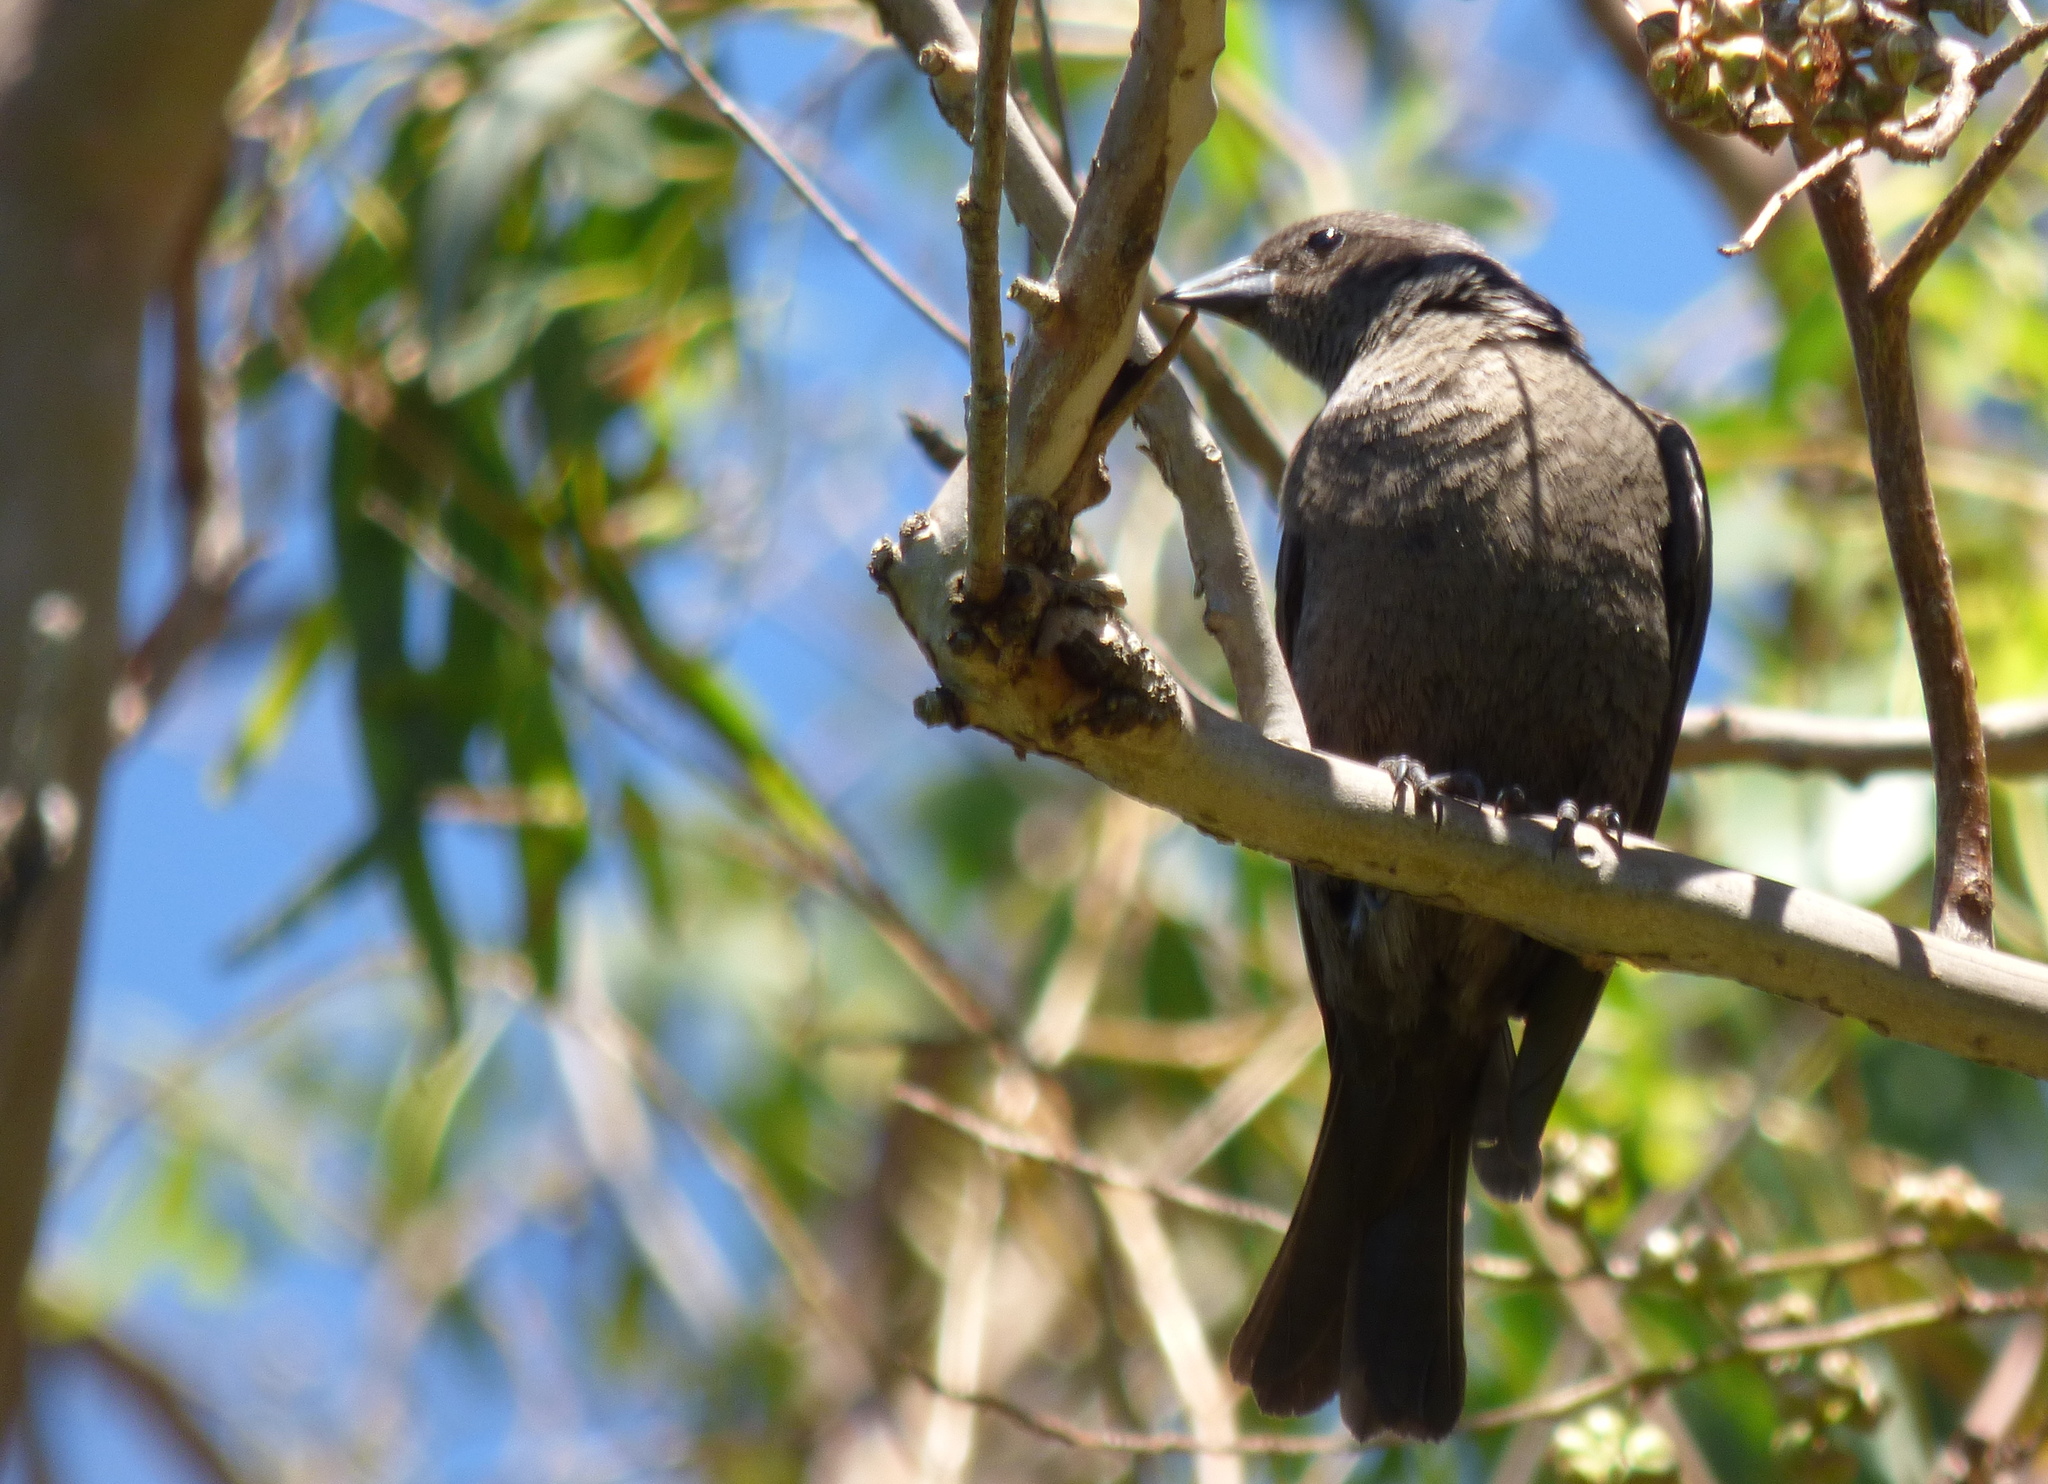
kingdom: Animalia
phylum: Chordata
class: Aves
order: Passeriformes
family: Icteridae
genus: Molothrus
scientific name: Molothrus bonariensis
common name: Shiny cowbird
